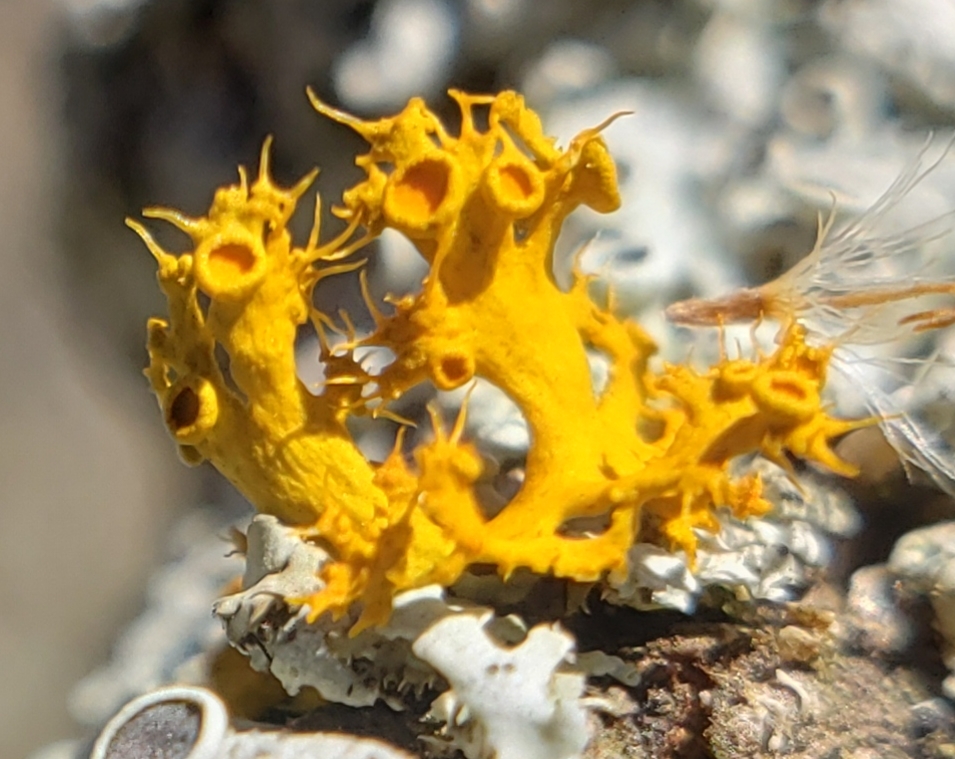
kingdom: Fungi
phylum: Ascomycota
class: Lecanoromycetes
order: Teloschistales
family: Teloschistaceae
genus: Niorma
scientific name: Niorma chrysophthalma
